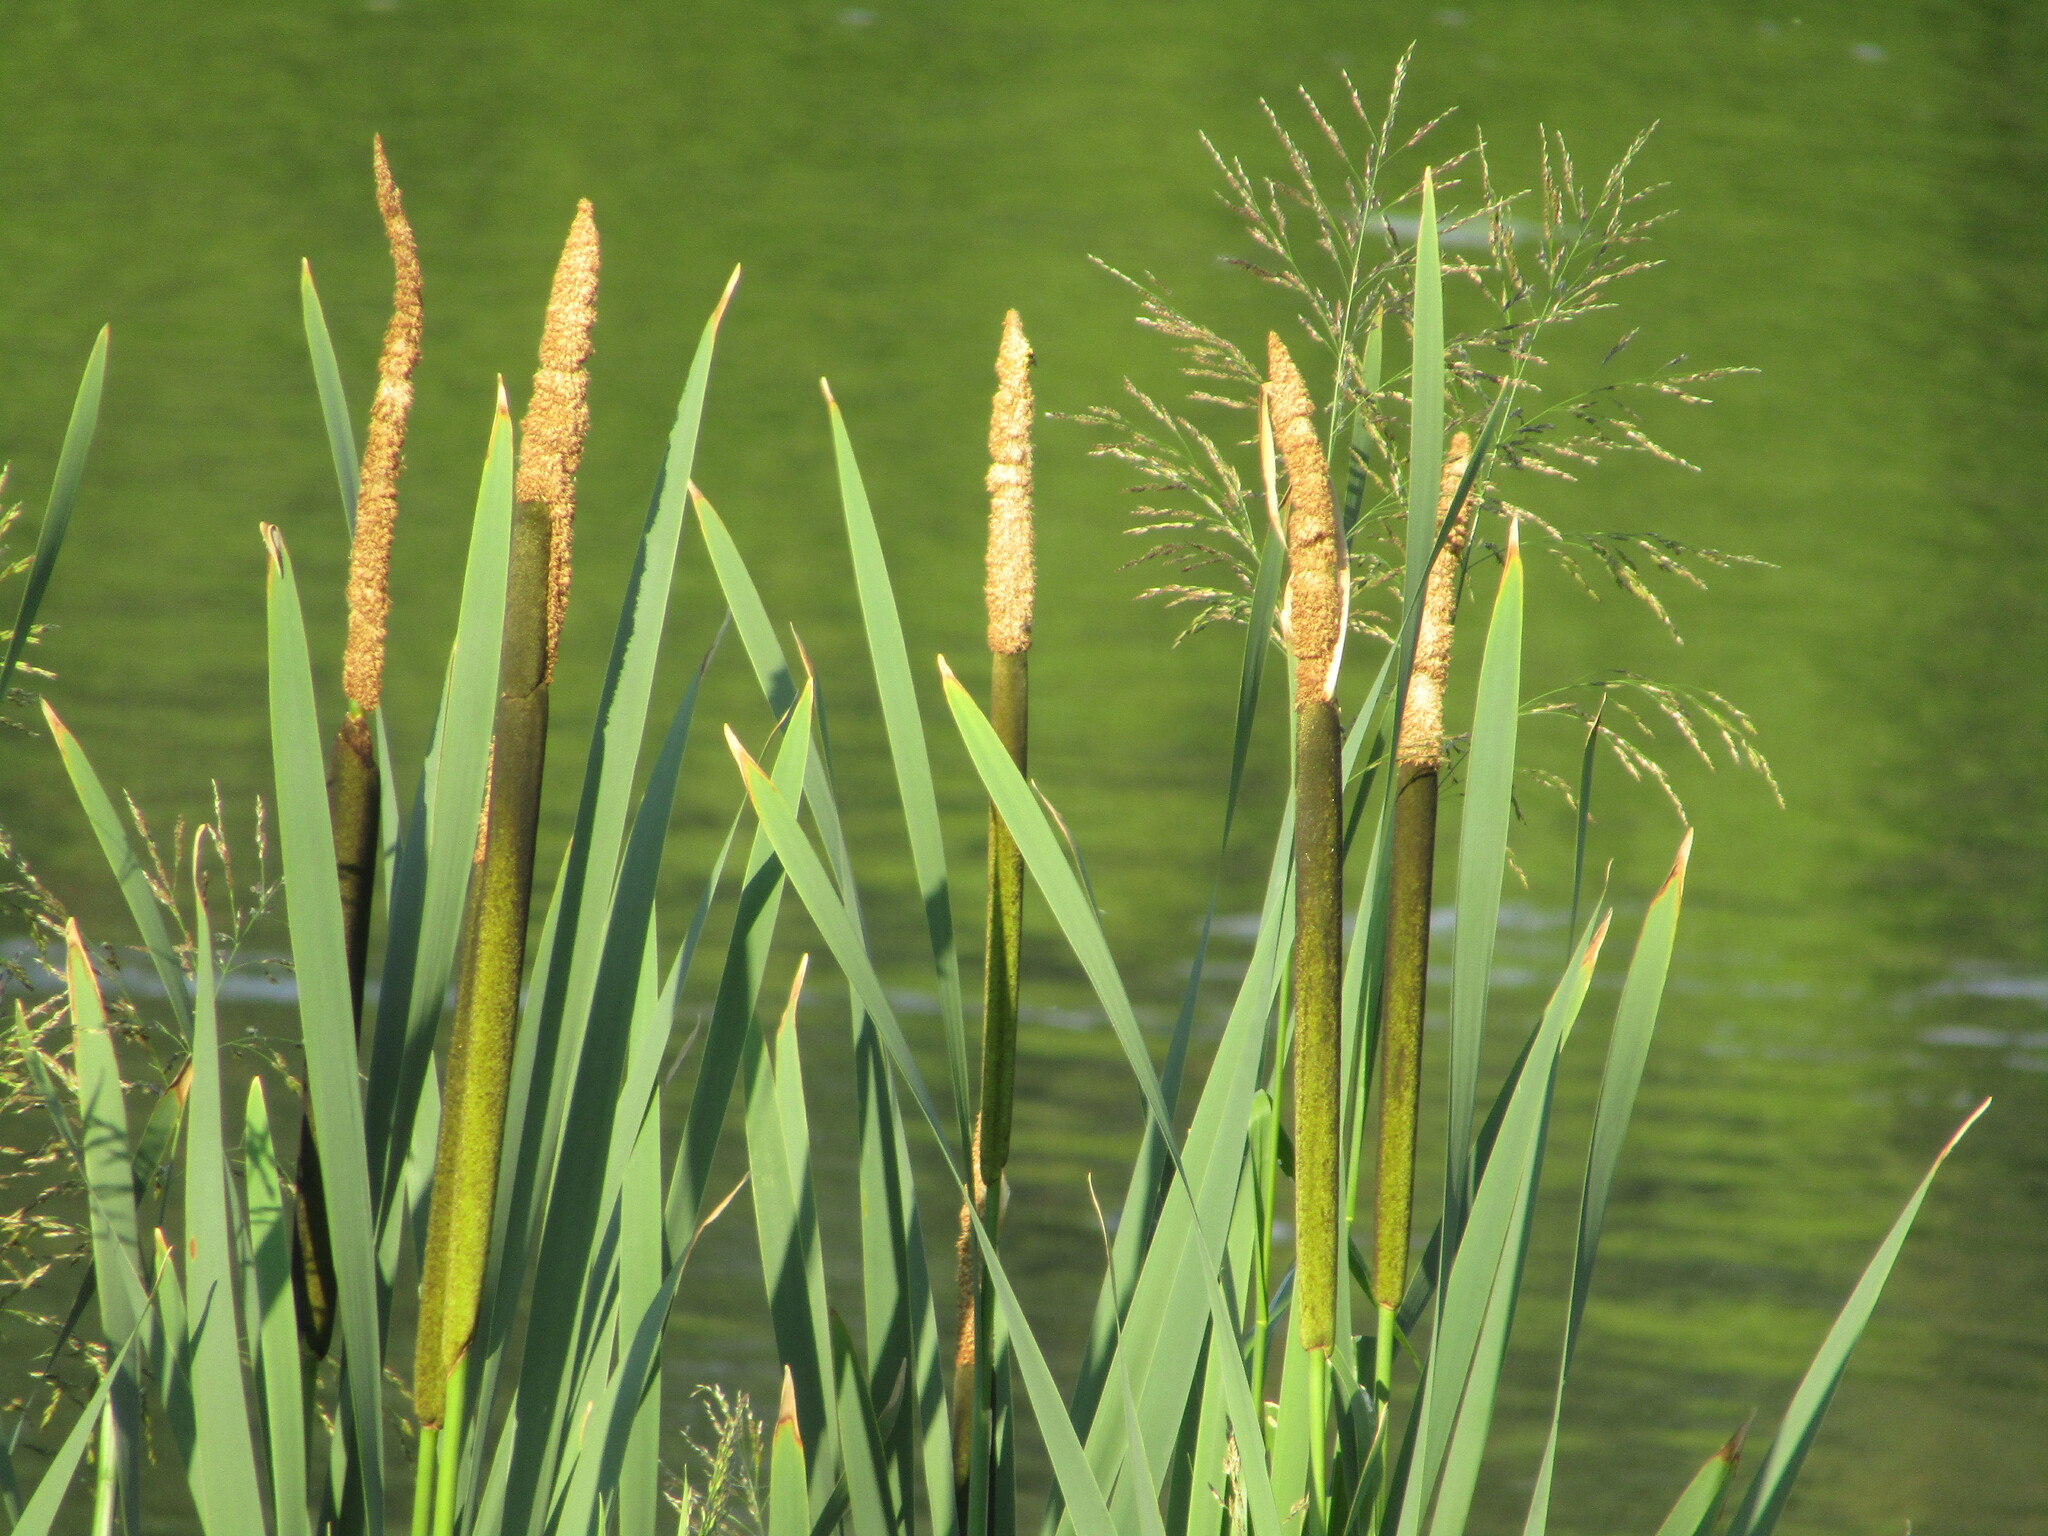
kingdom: Plantae
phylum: Tracheophyta
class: Liliopsida
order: Poales
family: Typhaceae
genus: Typha
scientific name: Typha latifolia
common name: Broadleaf cattail
